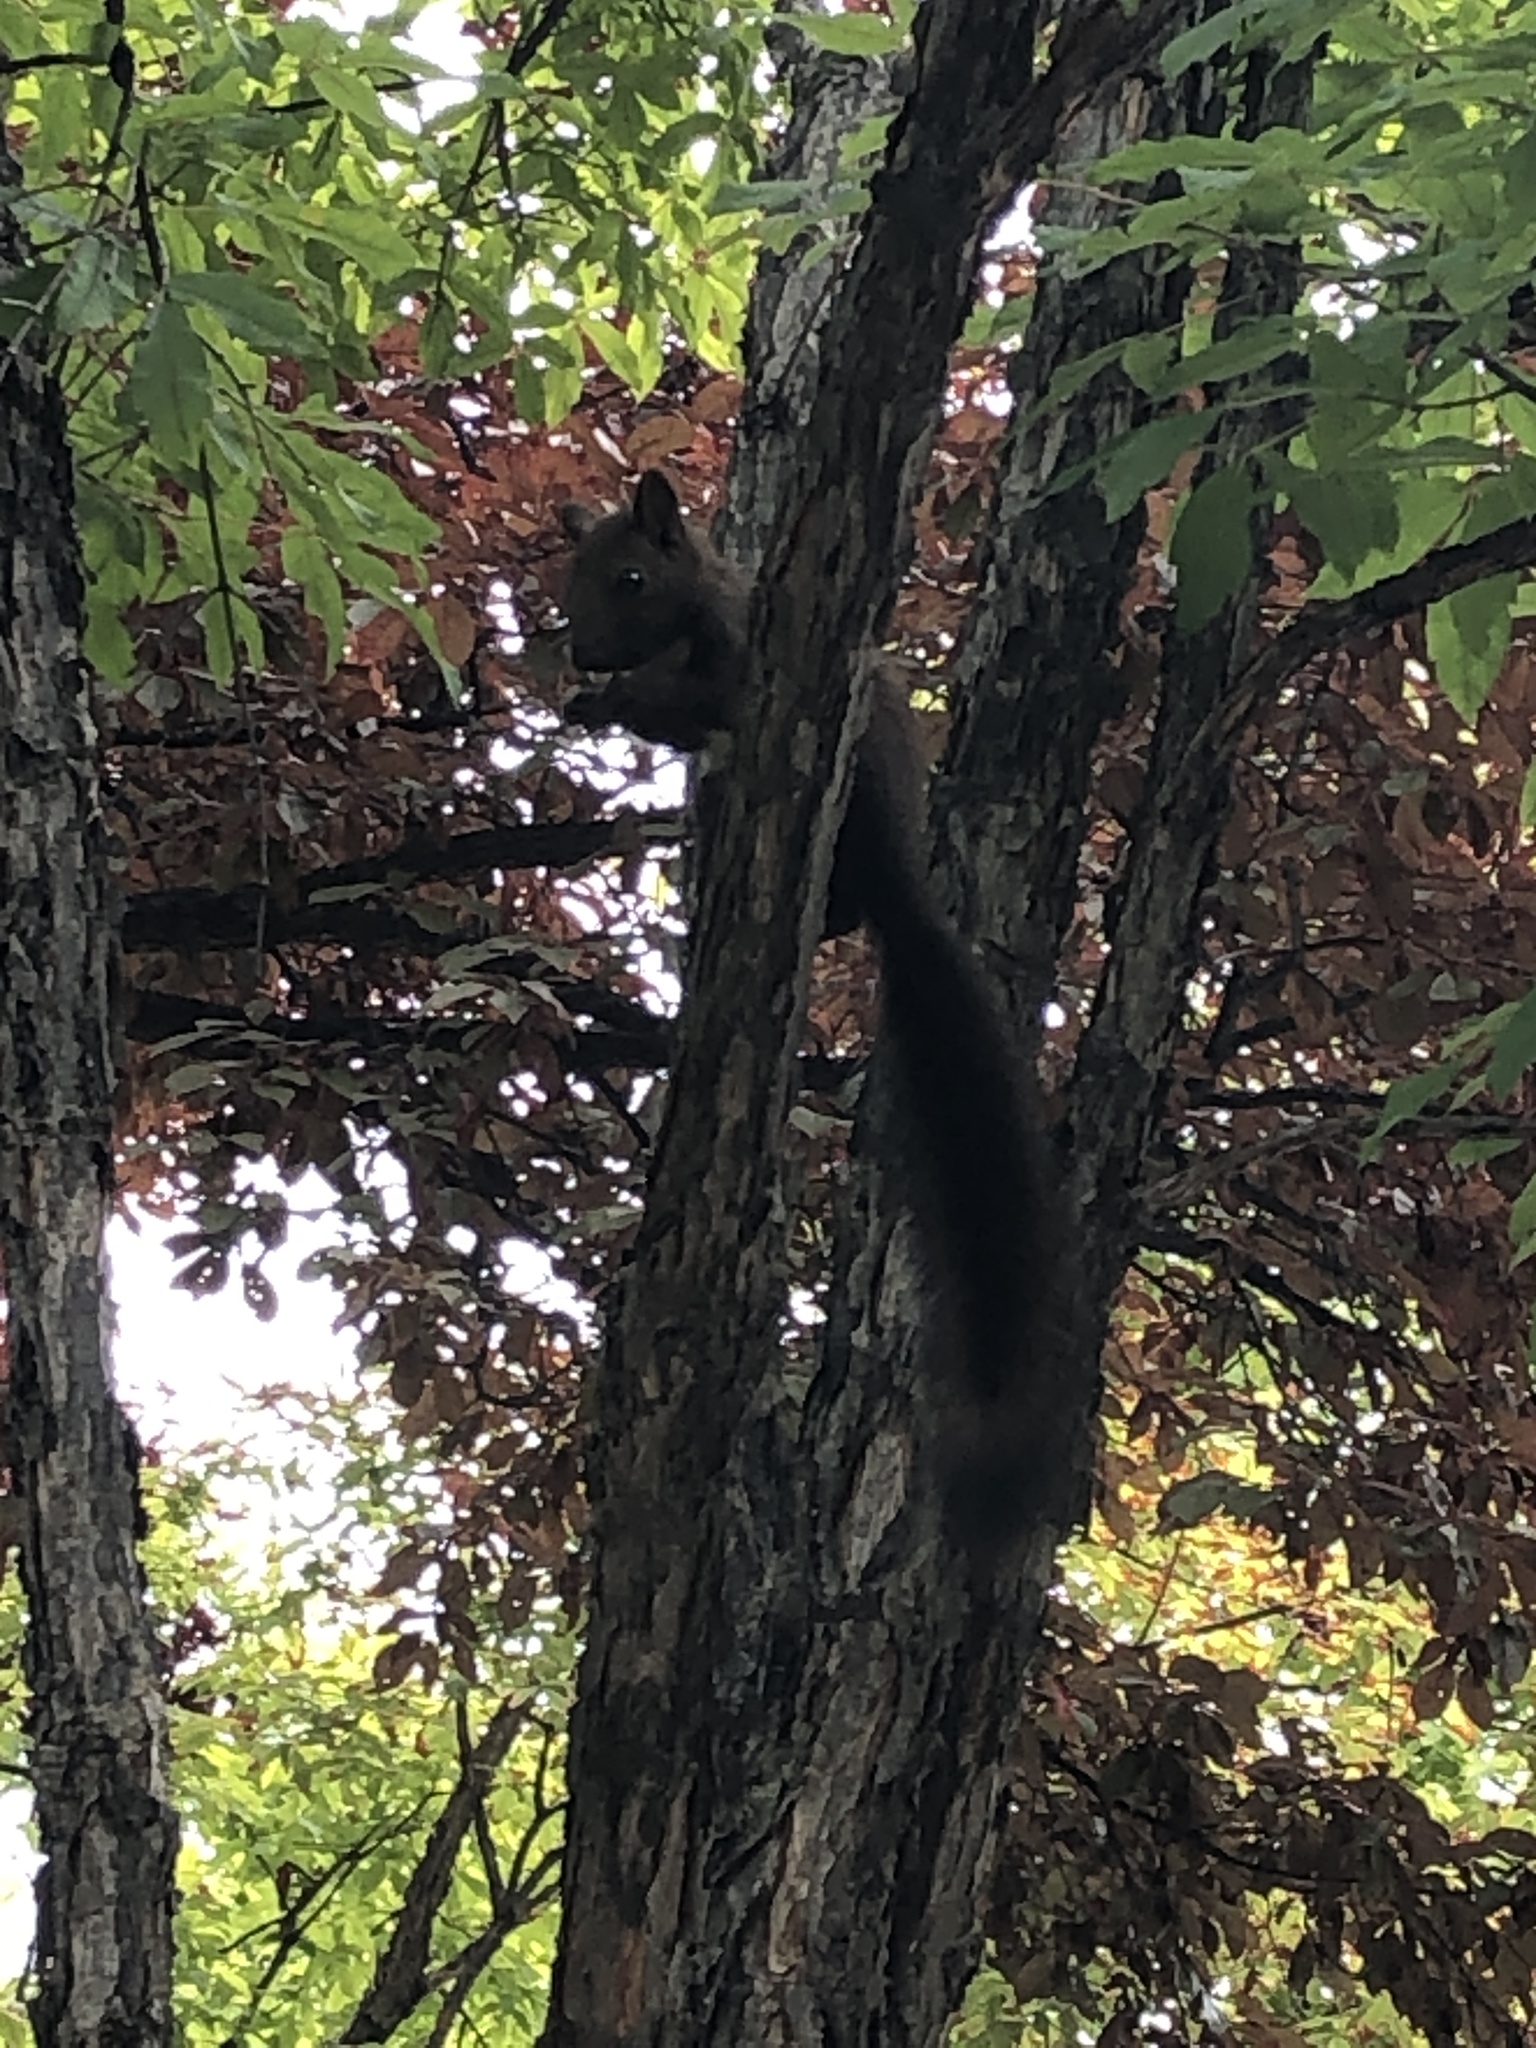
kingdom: Animalia
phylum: Chordata
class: Mammalia
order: Rodentia
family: Sciuridae
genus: Sciurus
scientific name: Sciurus vulgaris
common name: Eurasian red squirrel
